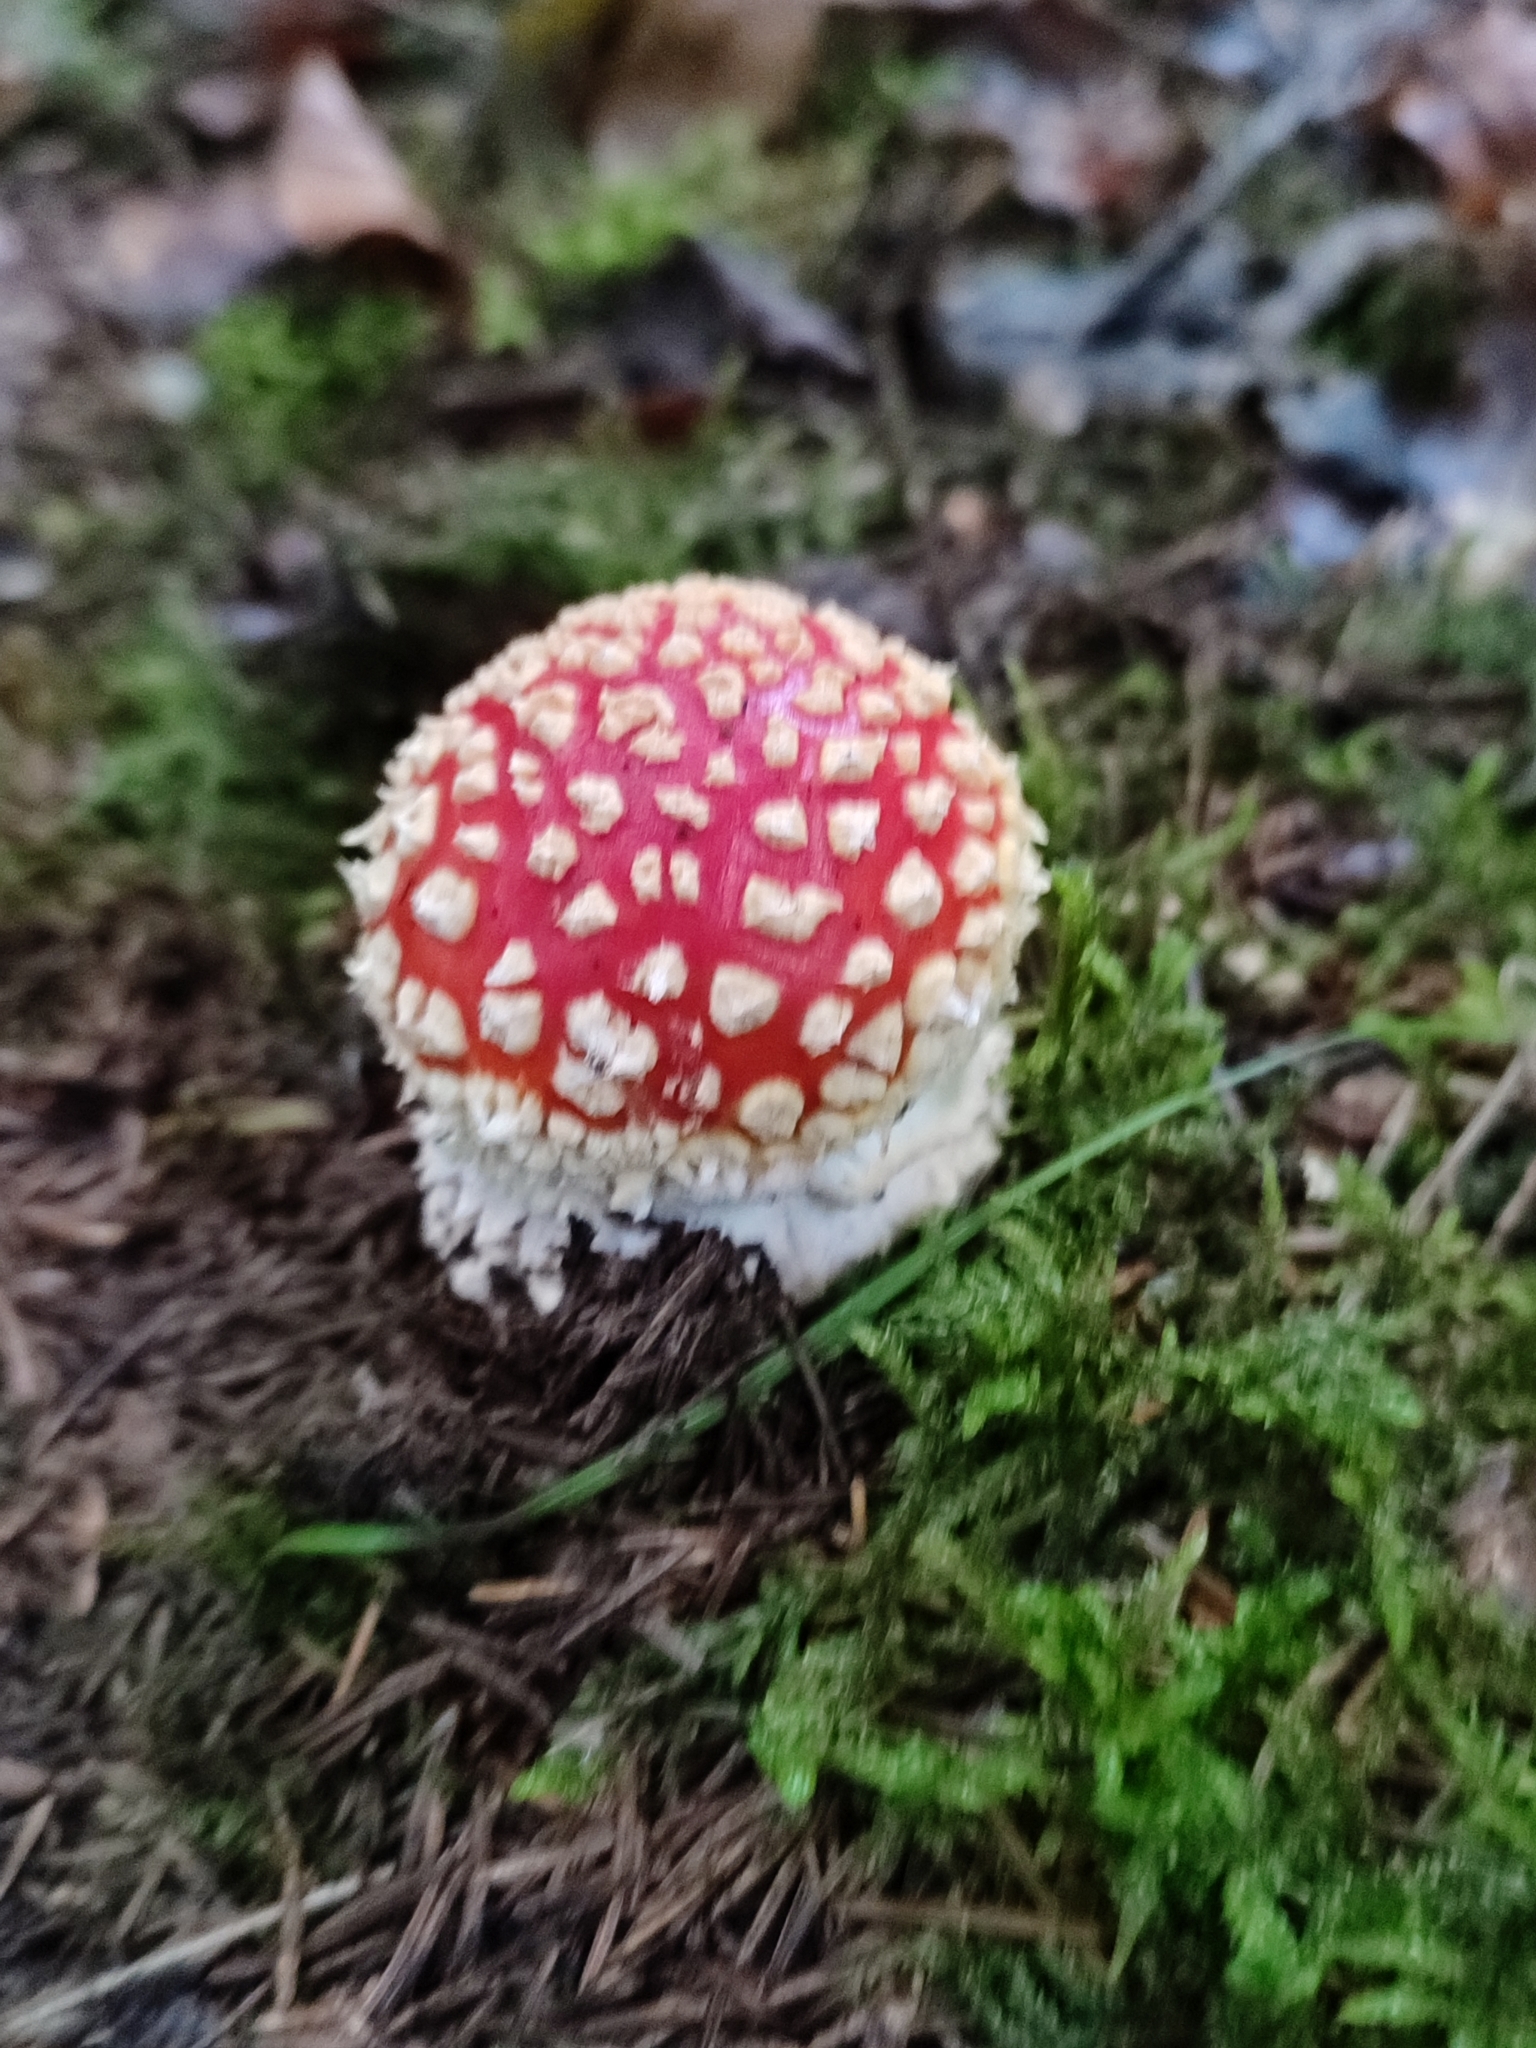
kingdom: Fungi
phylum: Basidiomycota
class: Agaricomycetes
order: Agaricales
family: Amanitaceae
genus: Amanita
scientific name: Amanita muscaria
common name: Fly agaric
